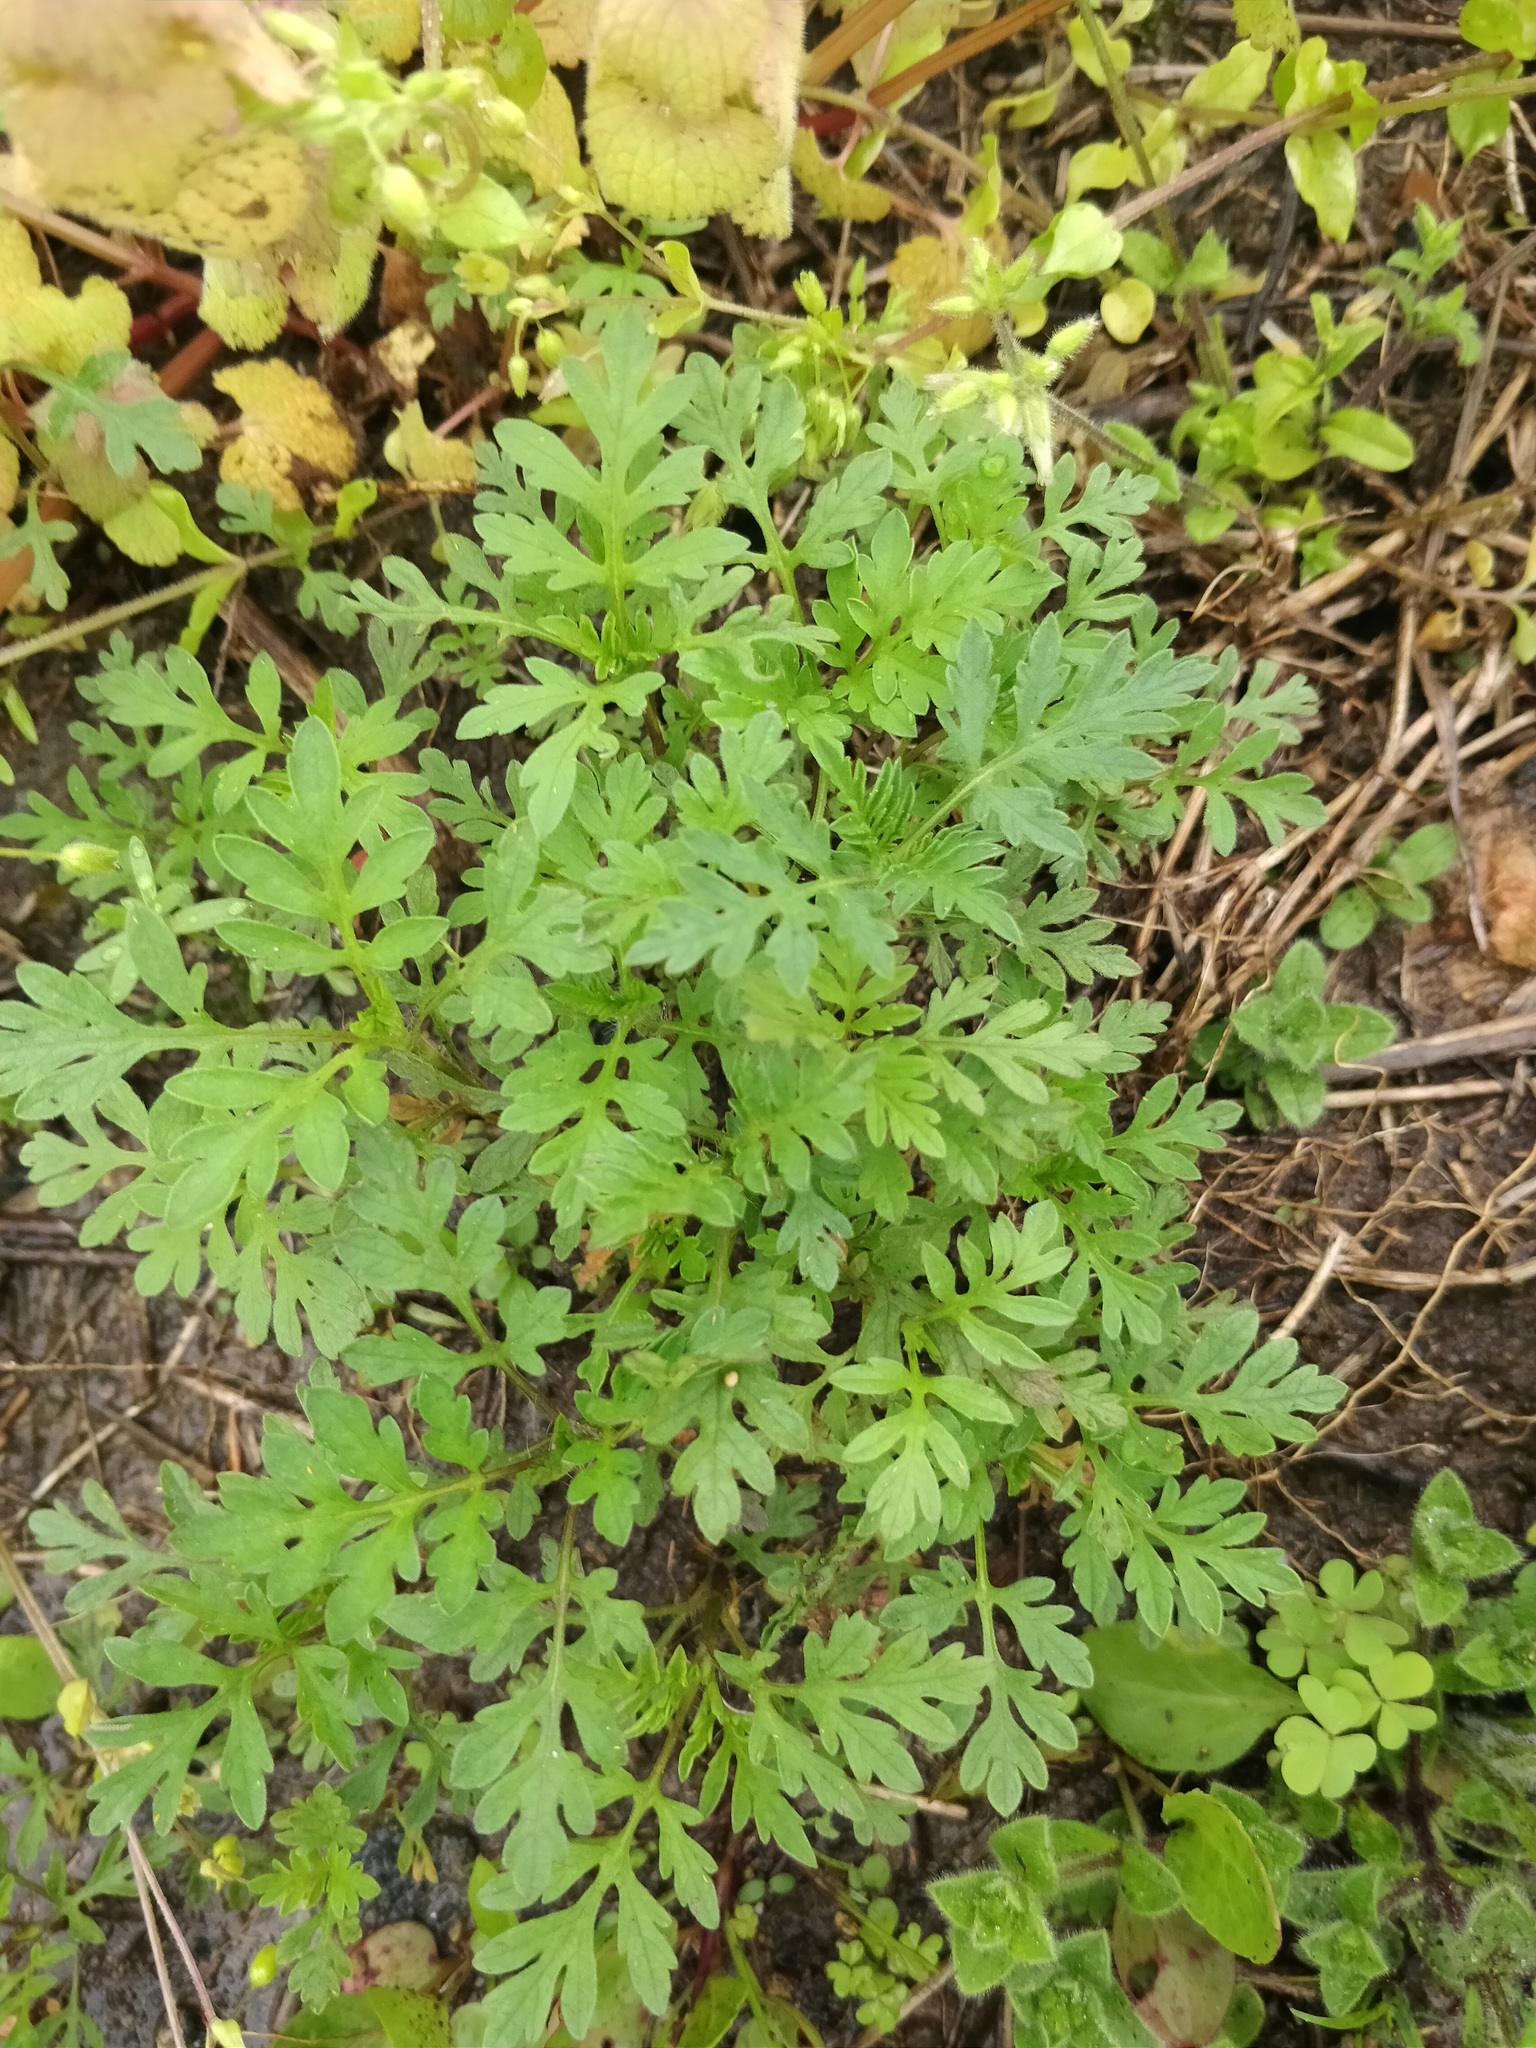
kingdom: Plantae
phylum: Tracheophyta
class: Magnoliopsida
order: Asterales
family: Asteraceae
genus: Ambrosia
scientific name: Ambrosia artemisiifolia
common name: Annual ragweed
